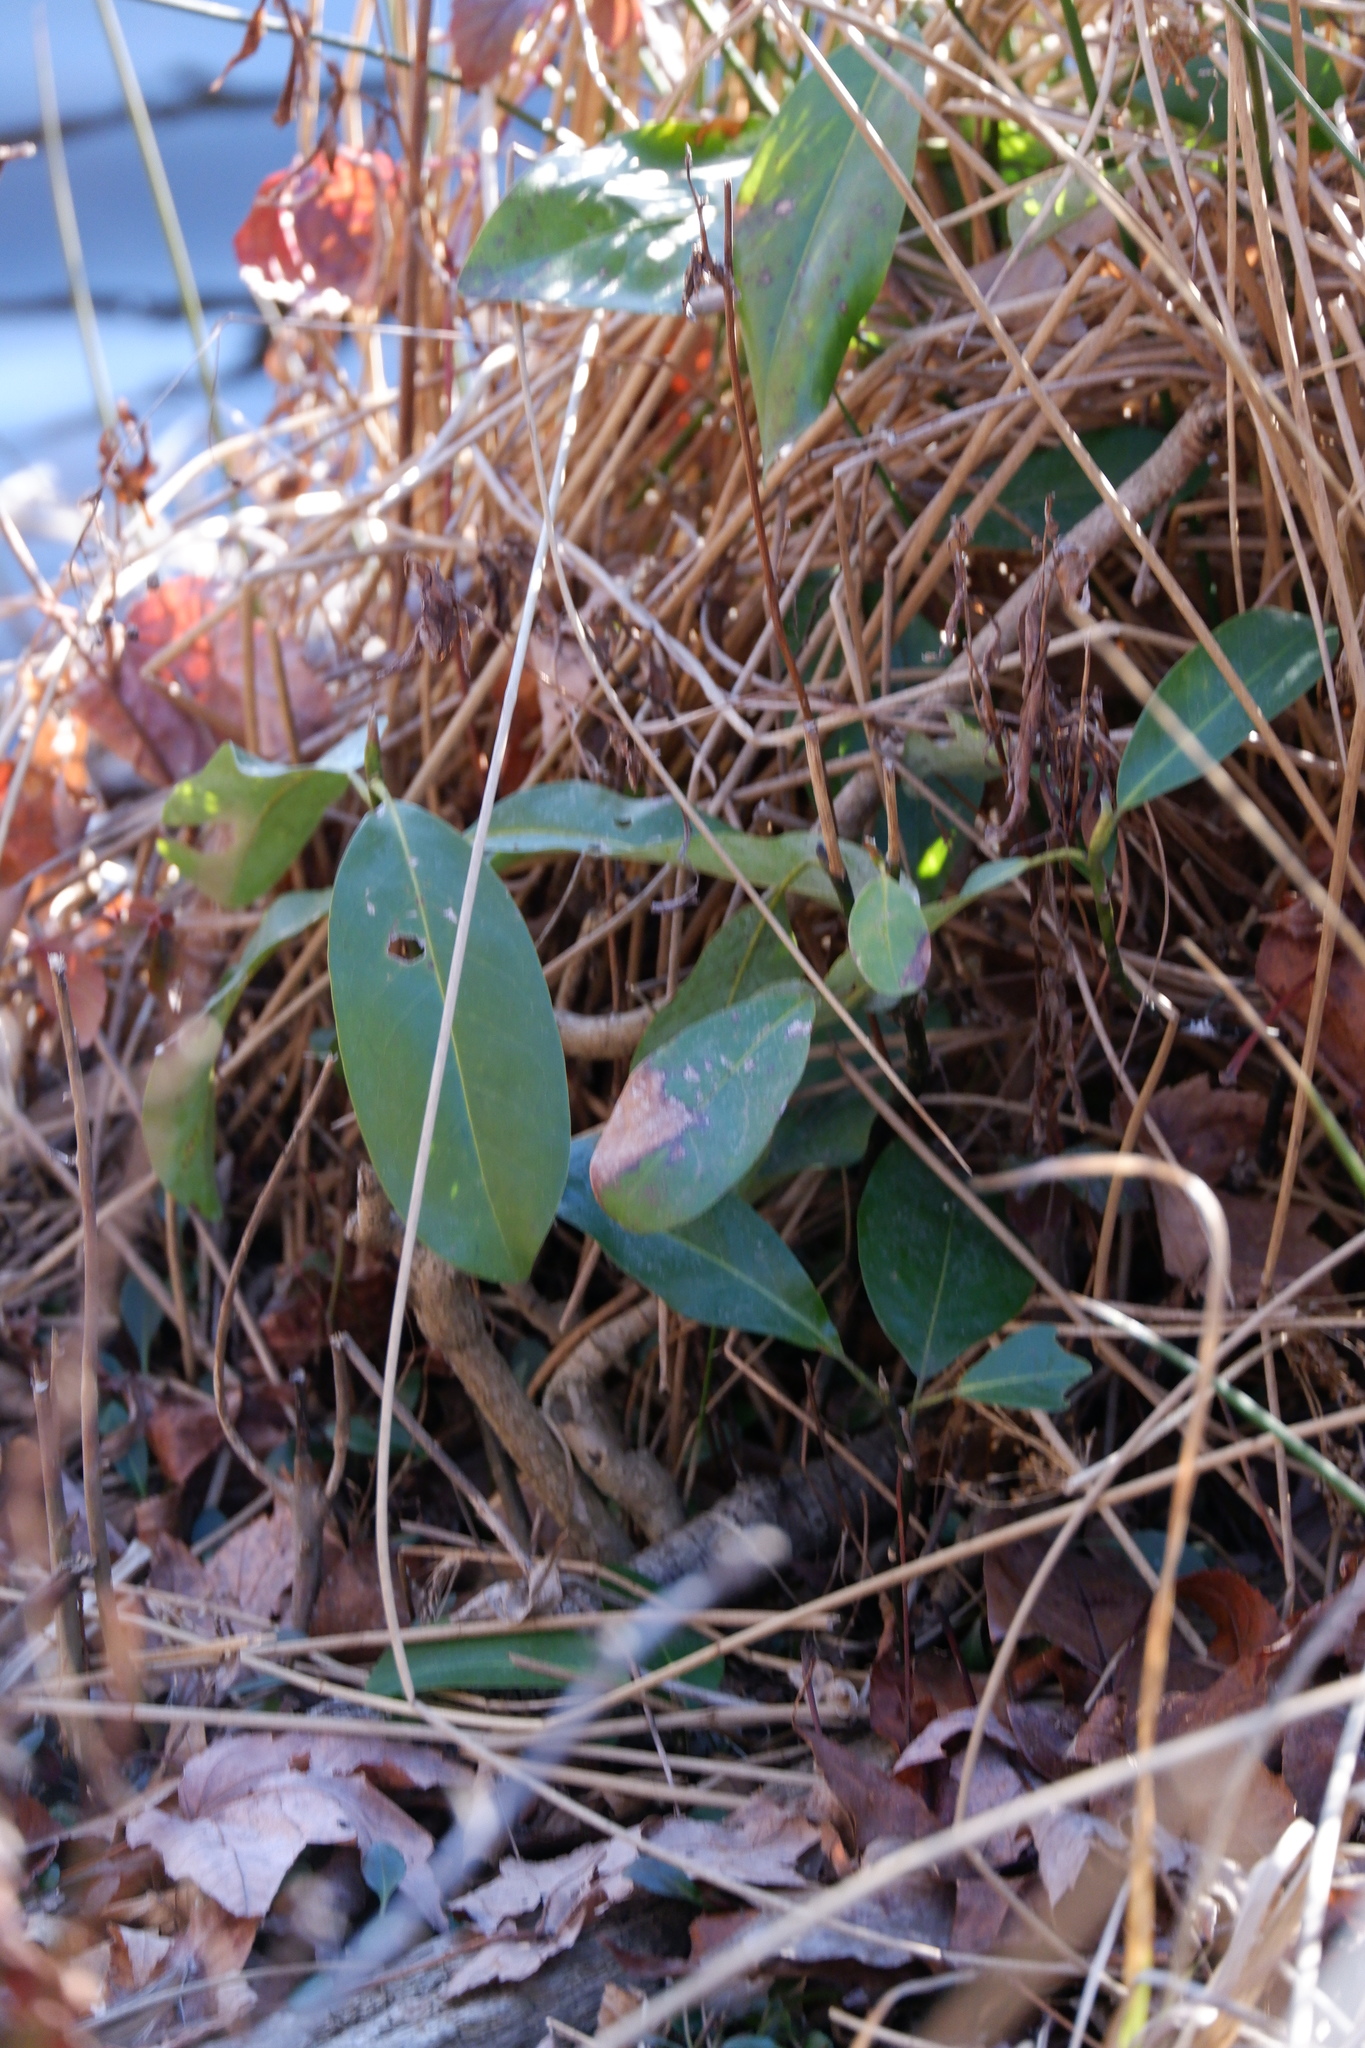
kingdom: Plantae
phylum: Tracheophyta
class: Magnoliopsida
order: Magnoliales
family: Magnoliaceae
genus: Magnolia
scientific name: Magnolia virginiana
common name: Swamp bay
